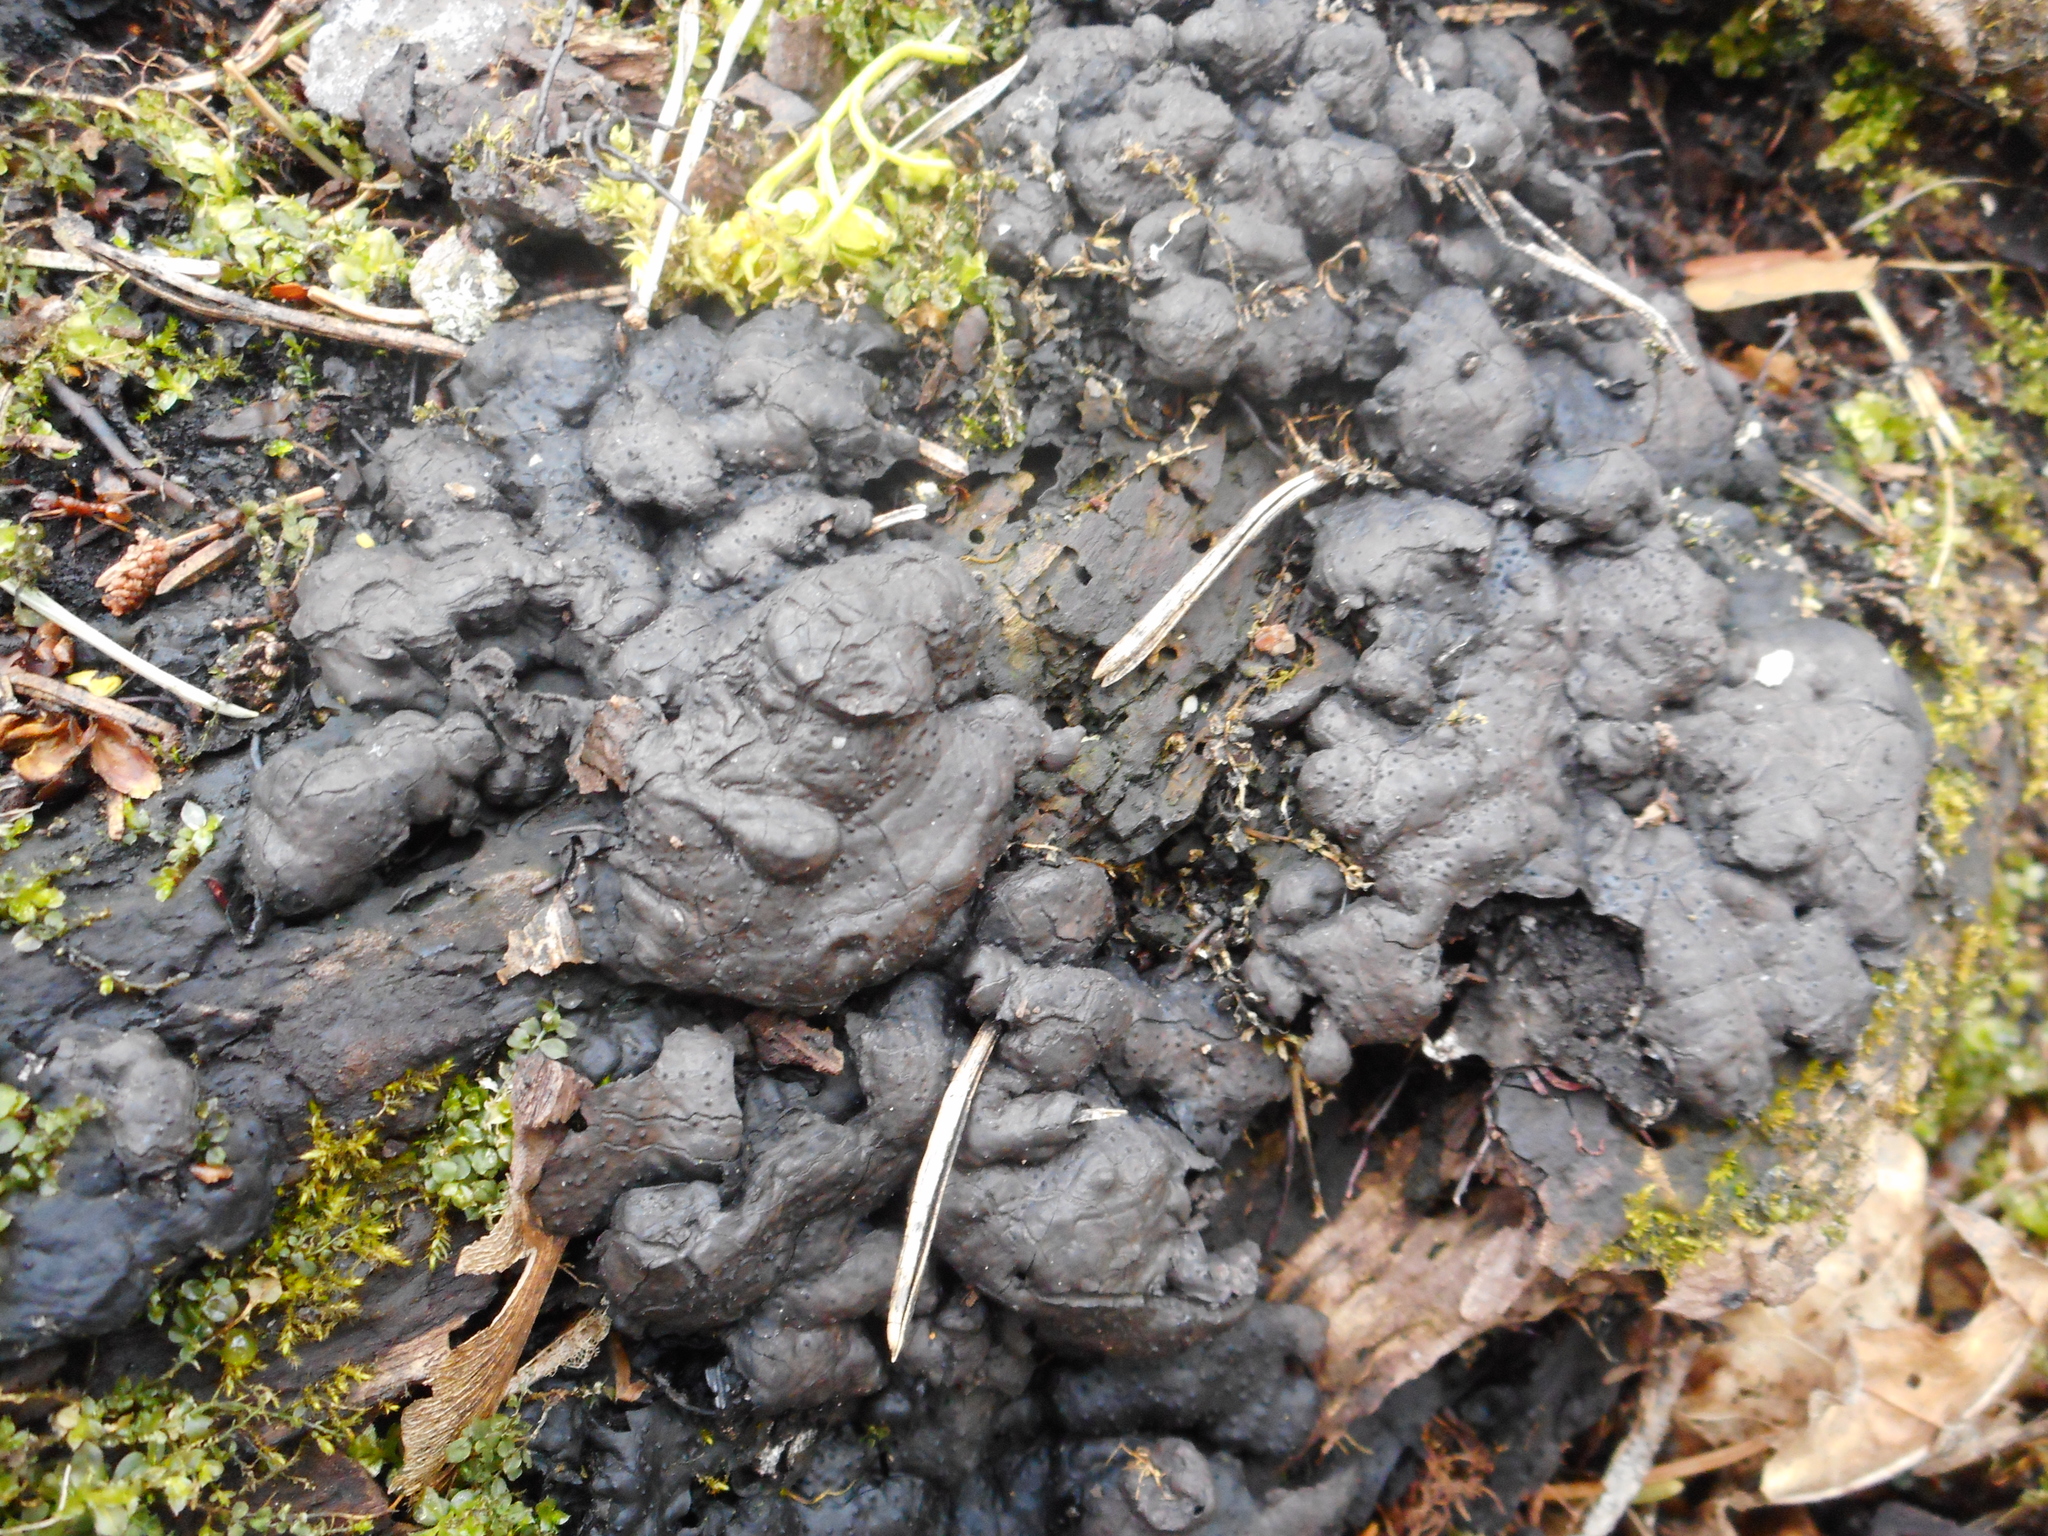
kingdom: Fungi
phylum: Ascomycota
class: Sordariomycetes
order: Xylariales
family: Xylariaceae
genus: Kretzschmaria
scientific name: Kretzschmaria deusta
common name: Brittle cinder
